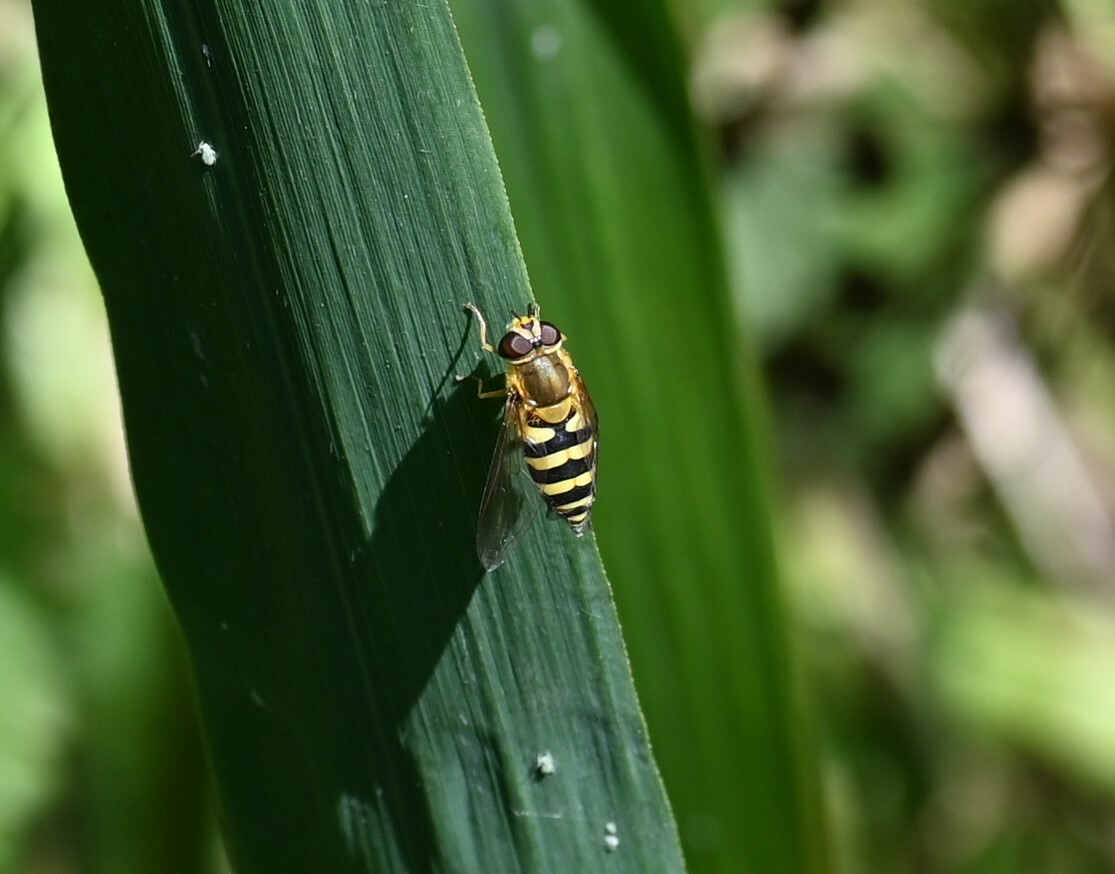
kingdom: Animalia
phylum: Arthropoda
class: Insecta
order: Diptera
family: Syrphidae
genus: Syrphus
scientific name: Syrphus
